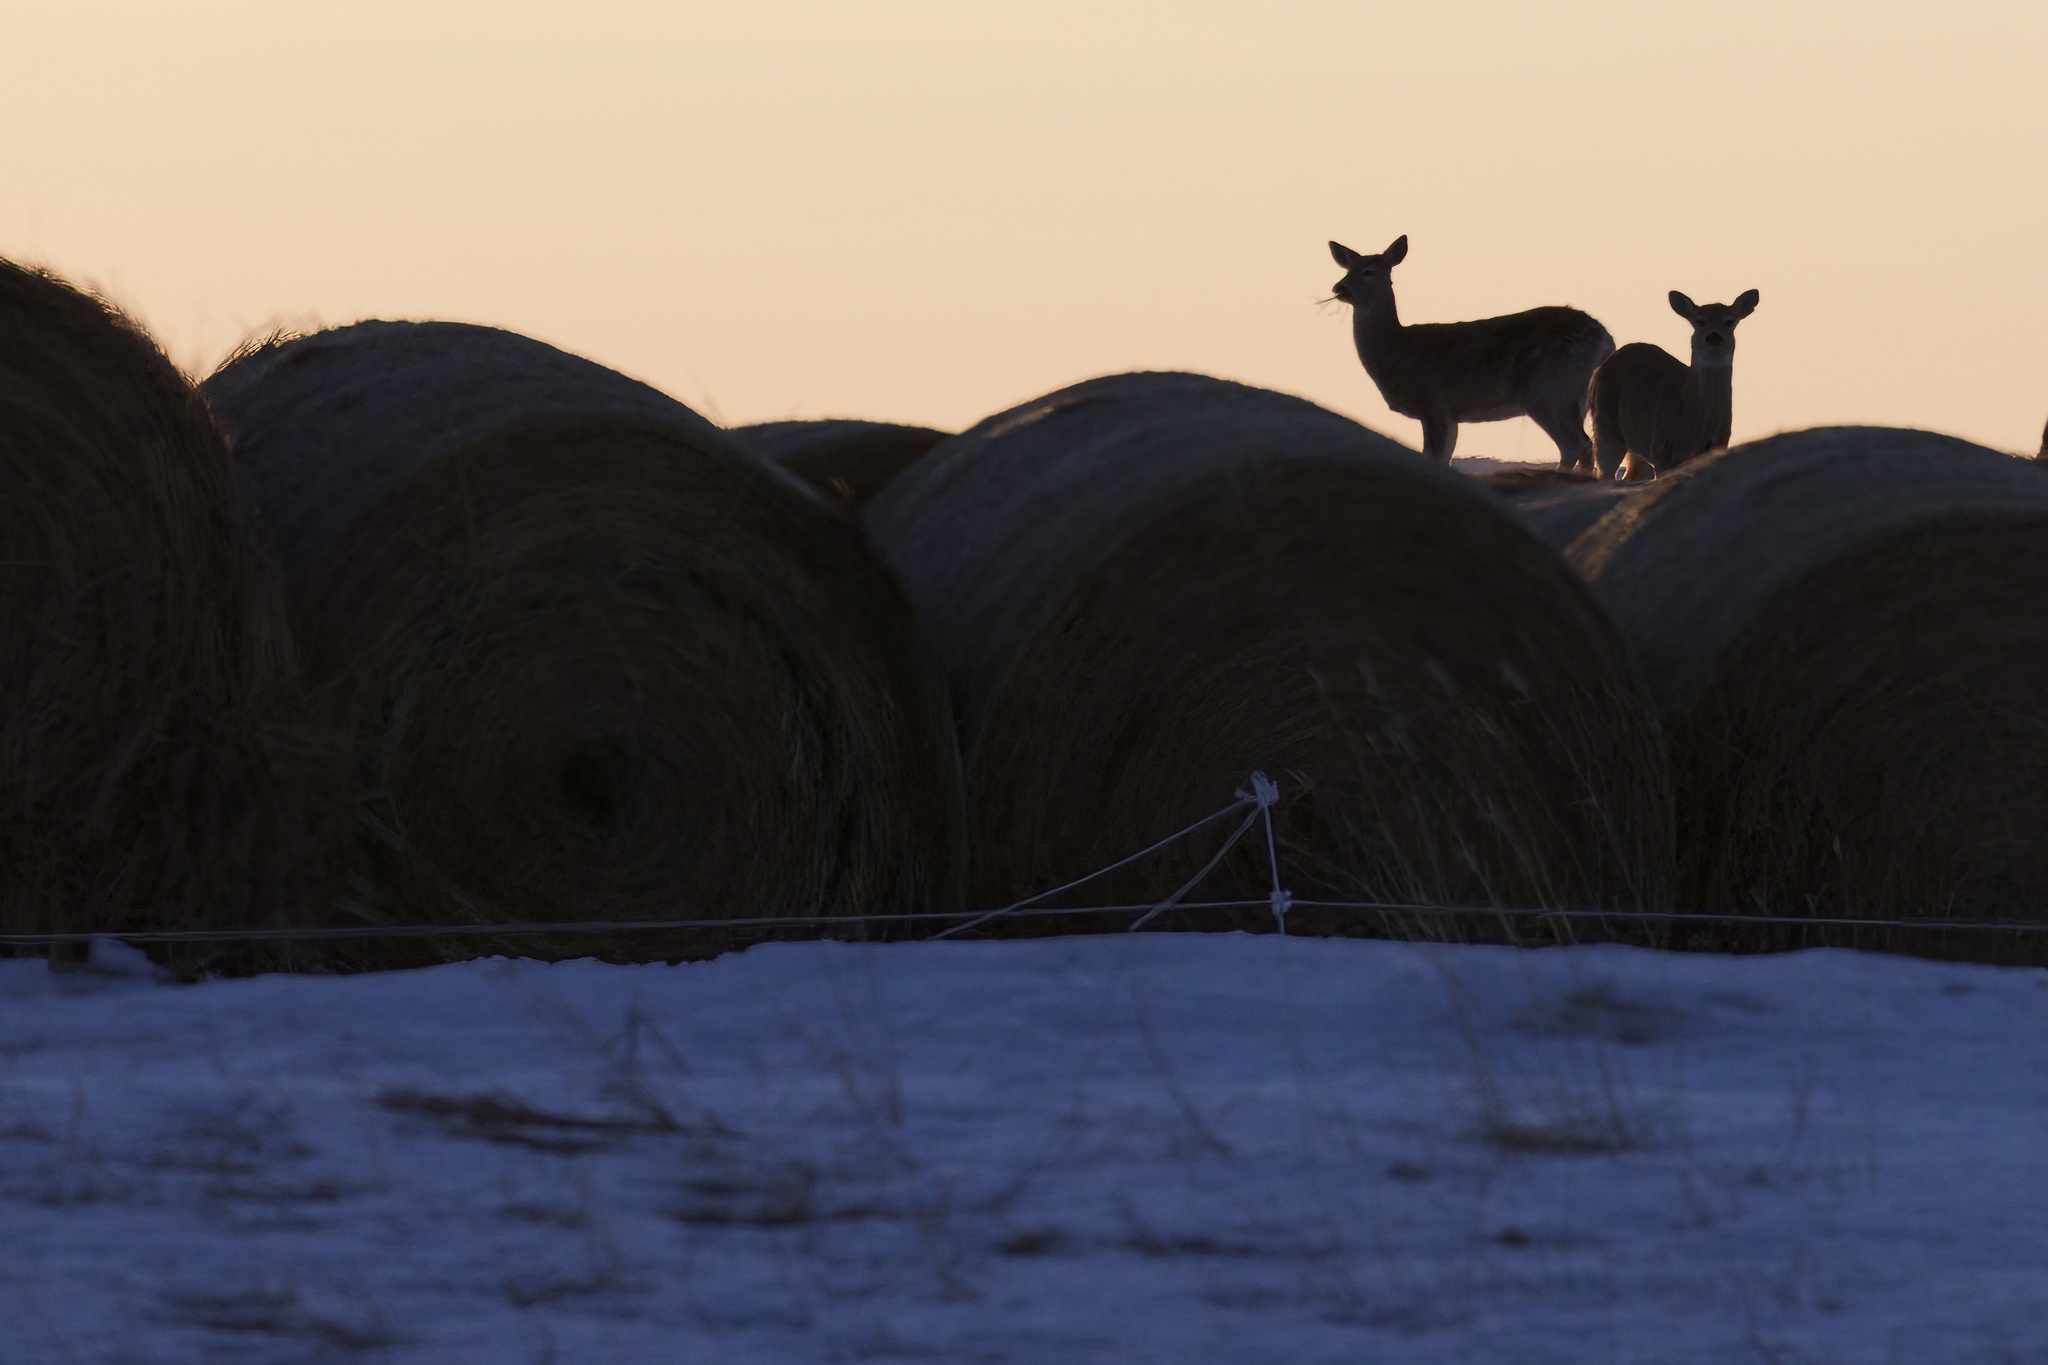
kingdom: Animalia
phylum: Chordata
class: Mammalia
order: Artiodactyla
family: Cervidae
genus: Odocoileus
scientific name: Odocoileus virginianus
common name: White-tailed deer
